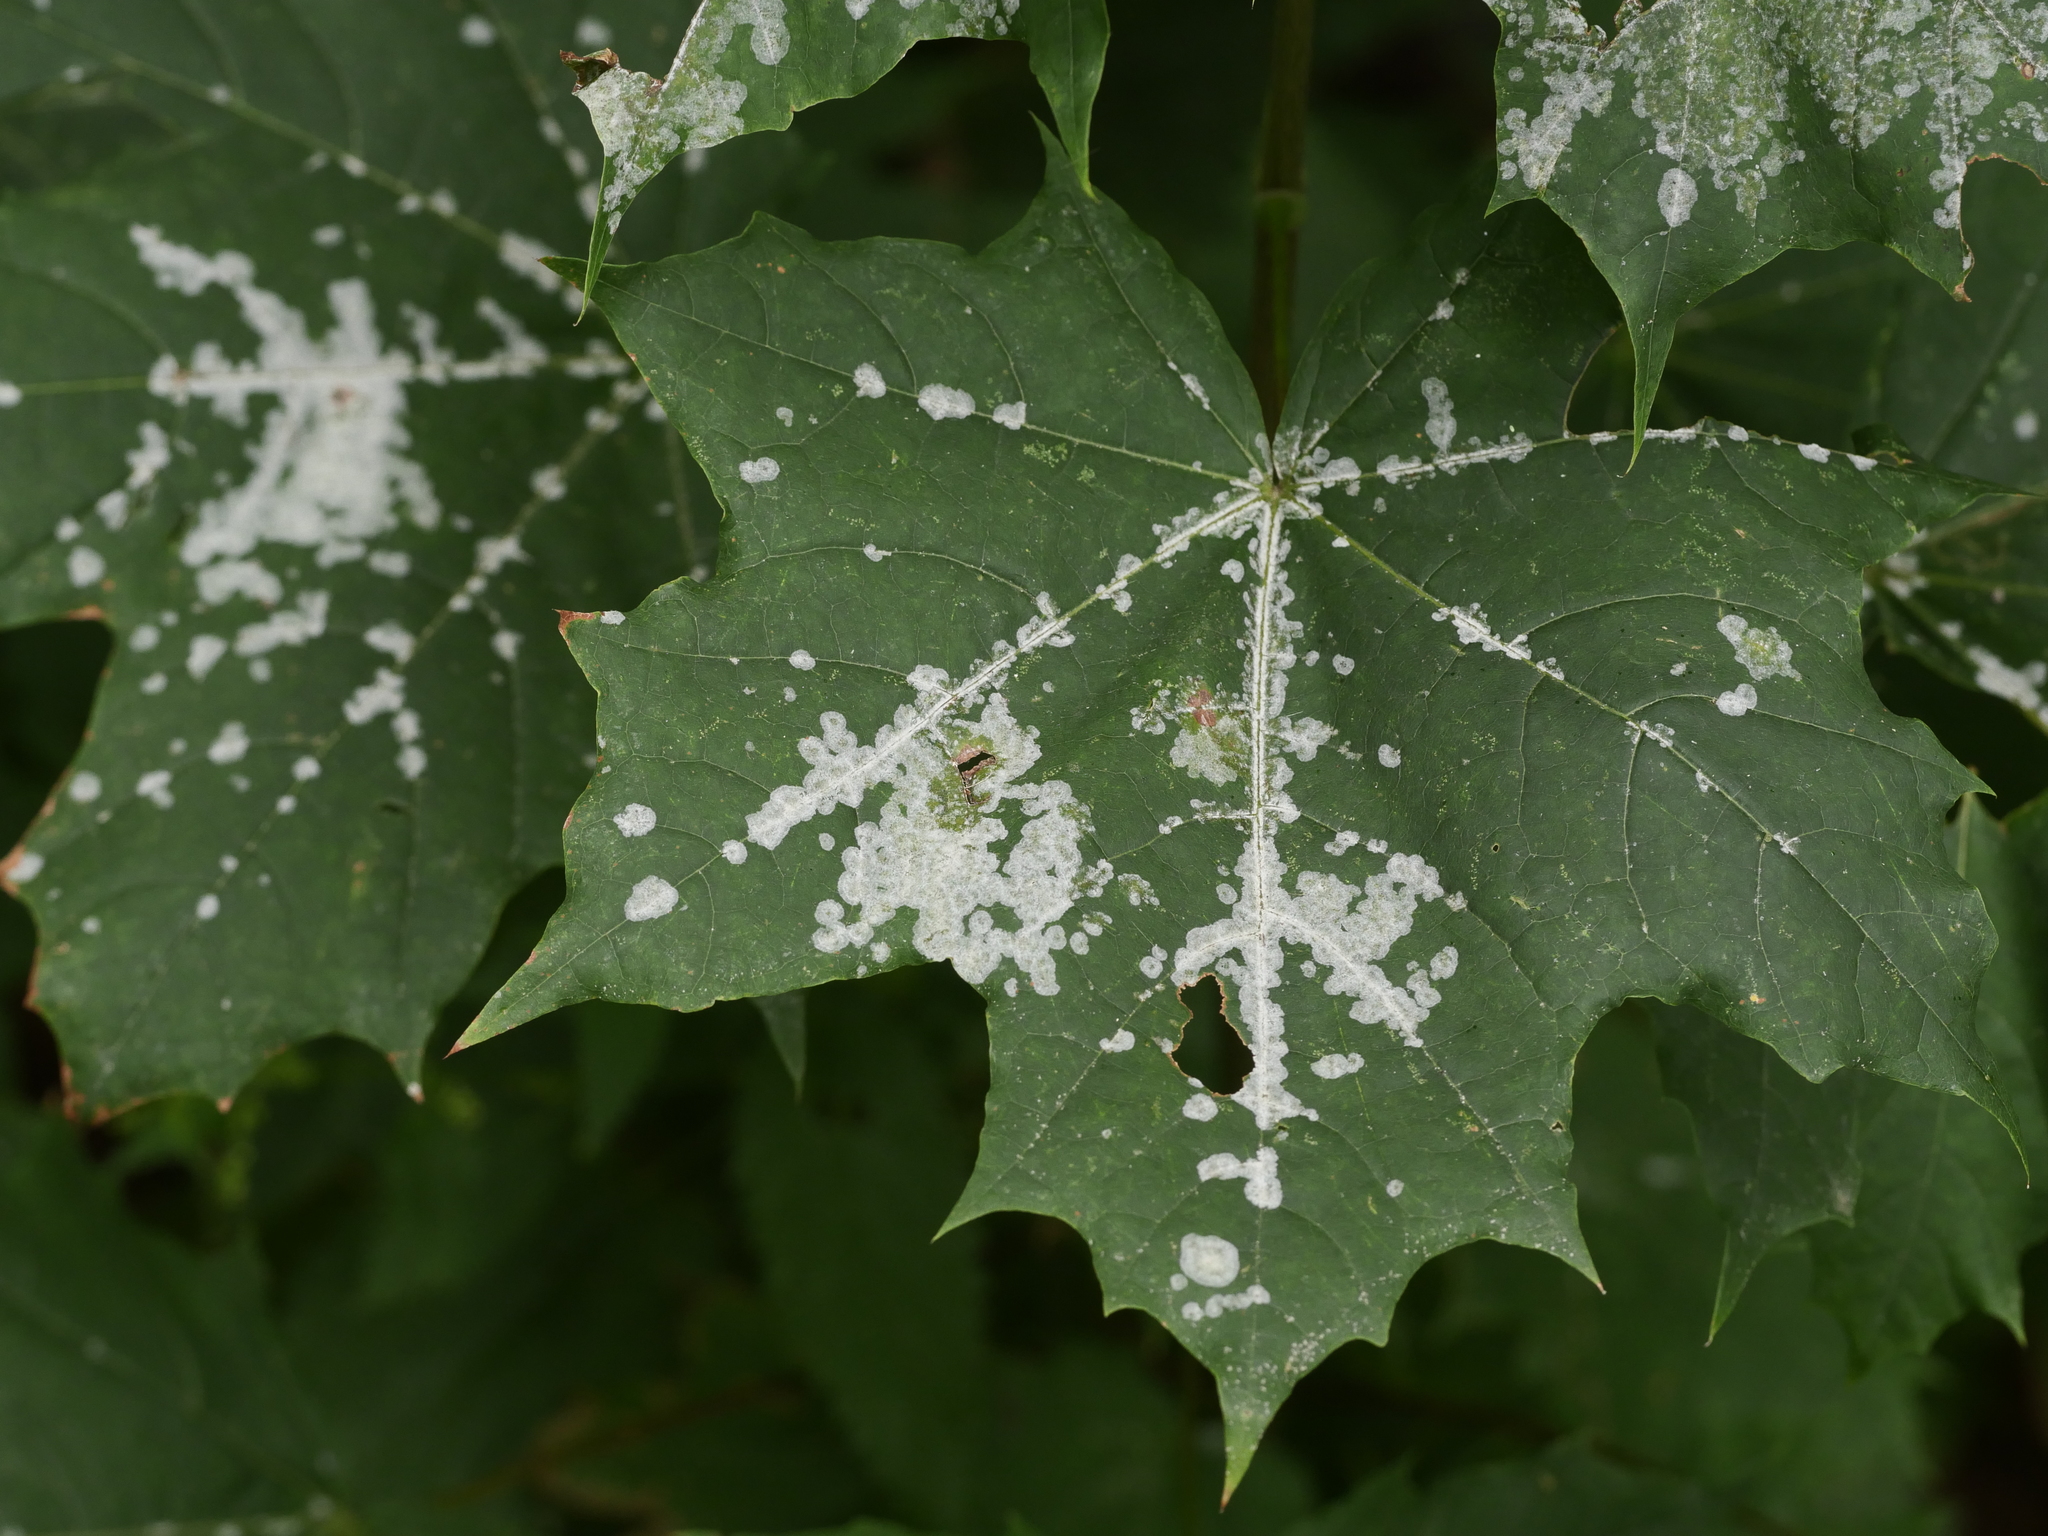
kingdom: Fungi
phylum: Ascomycota
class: Leotiomycetes
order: Helotiales
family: Erysiphaceae
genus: Sawadaea
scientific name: Sawadaea tulasnei
